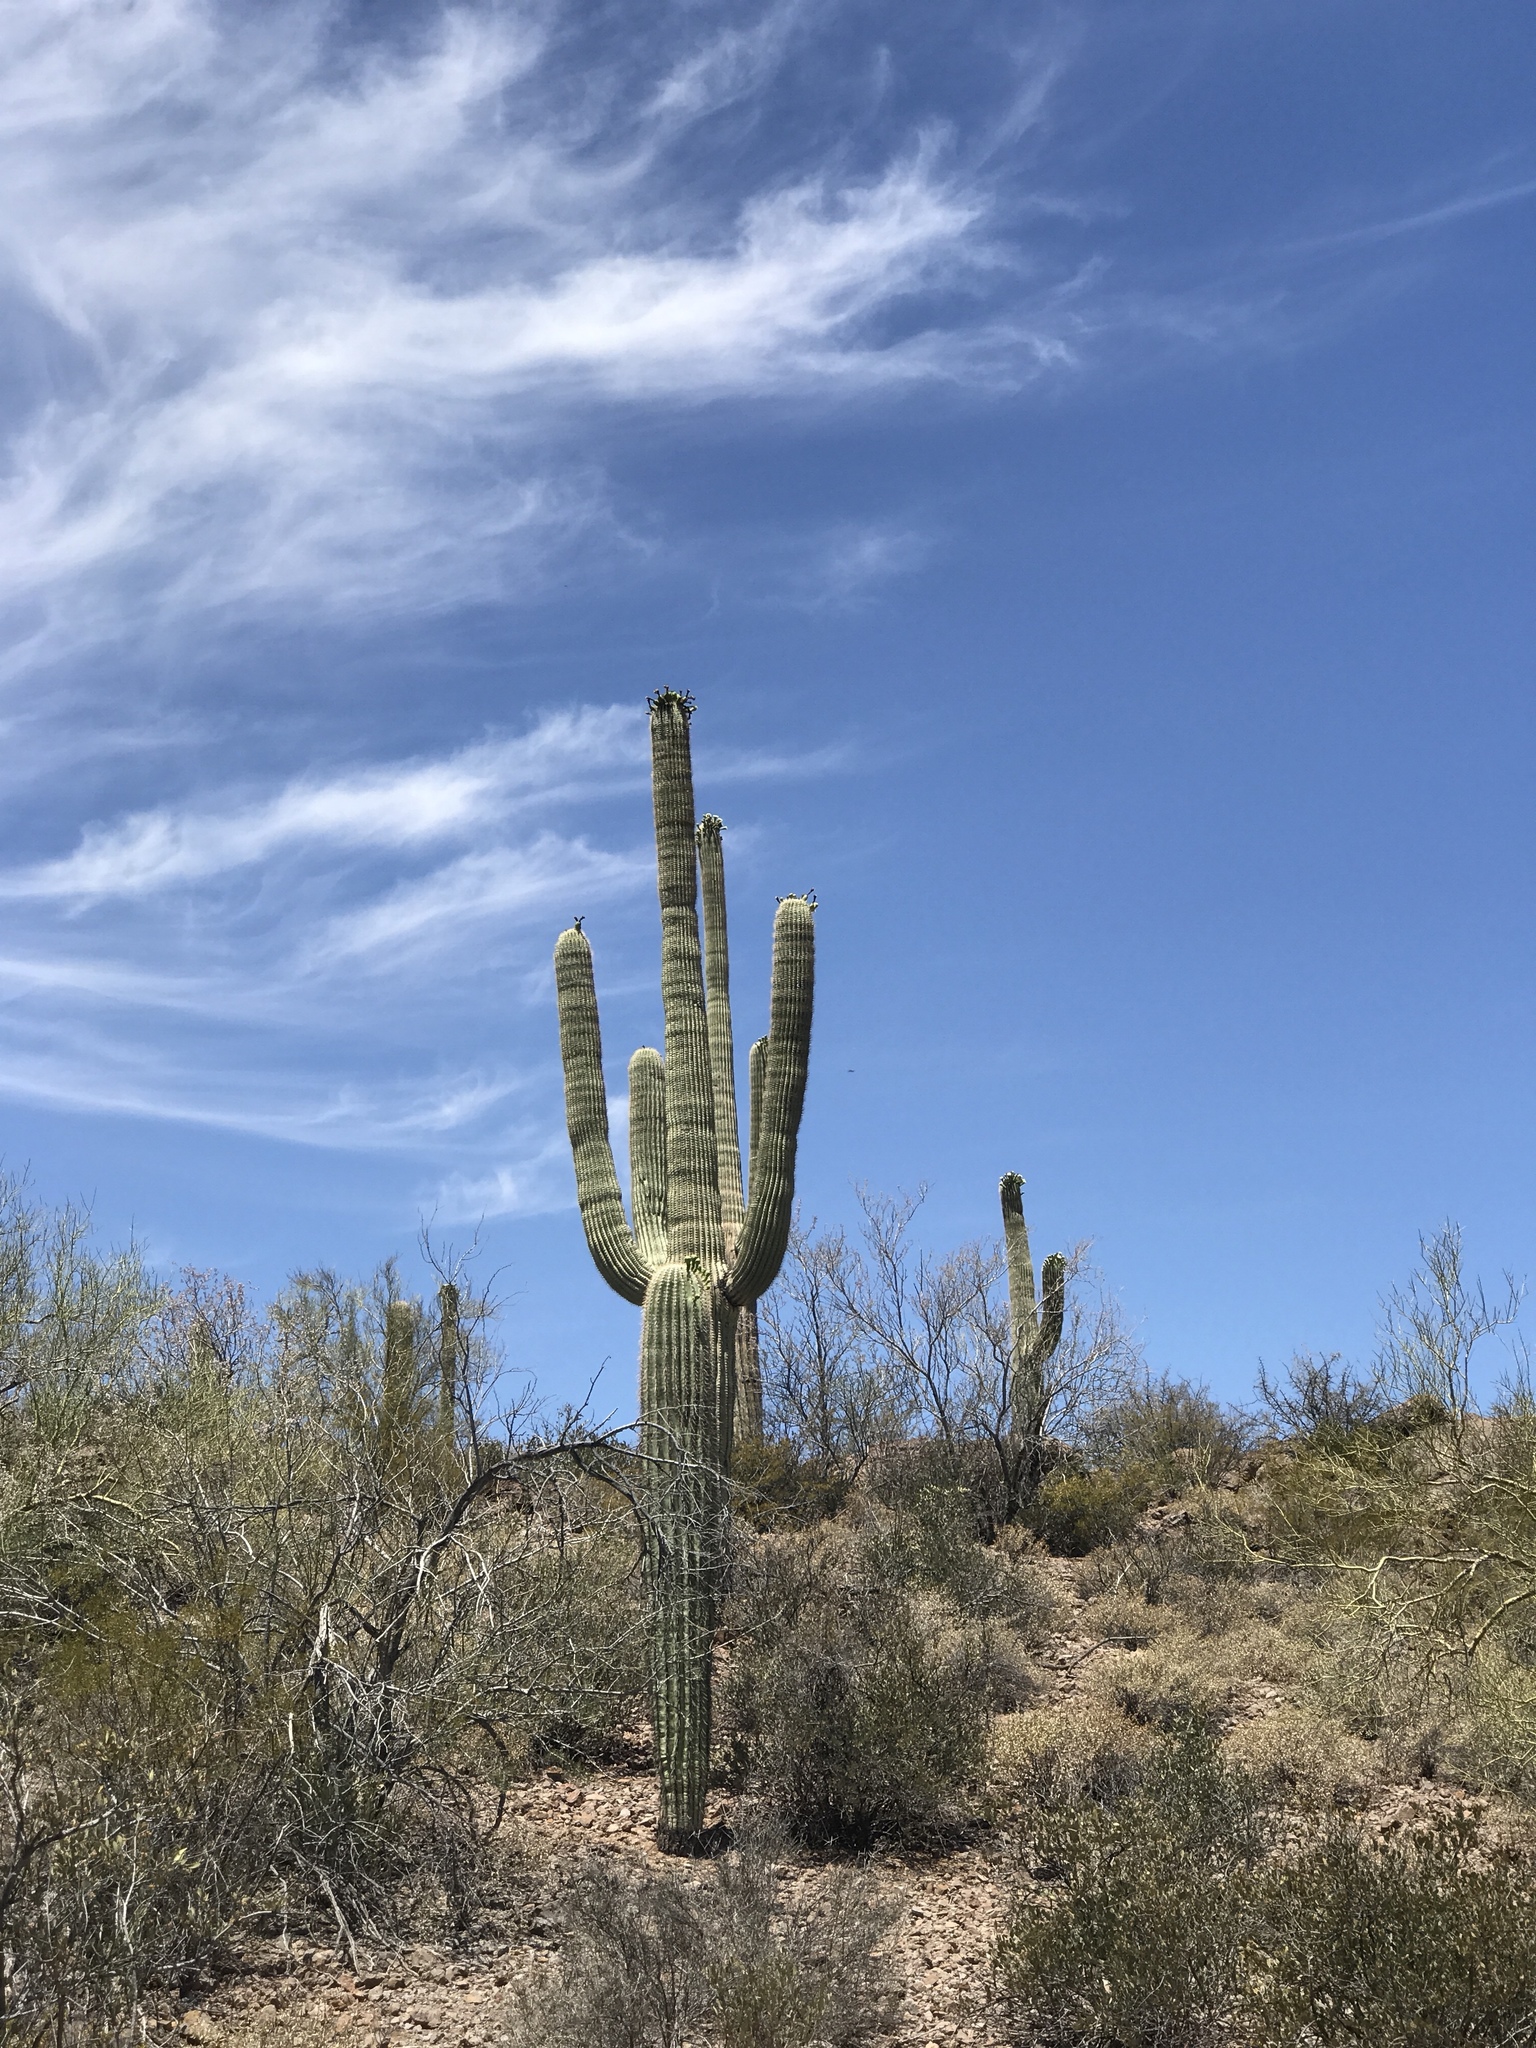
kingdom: Plantae
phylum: Tracheophyta
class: Magnoliopsida
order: Caryophyllales
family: Cactaceae
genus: Carnegiea
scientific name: Carnegiea gigantea
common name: Saguaro
